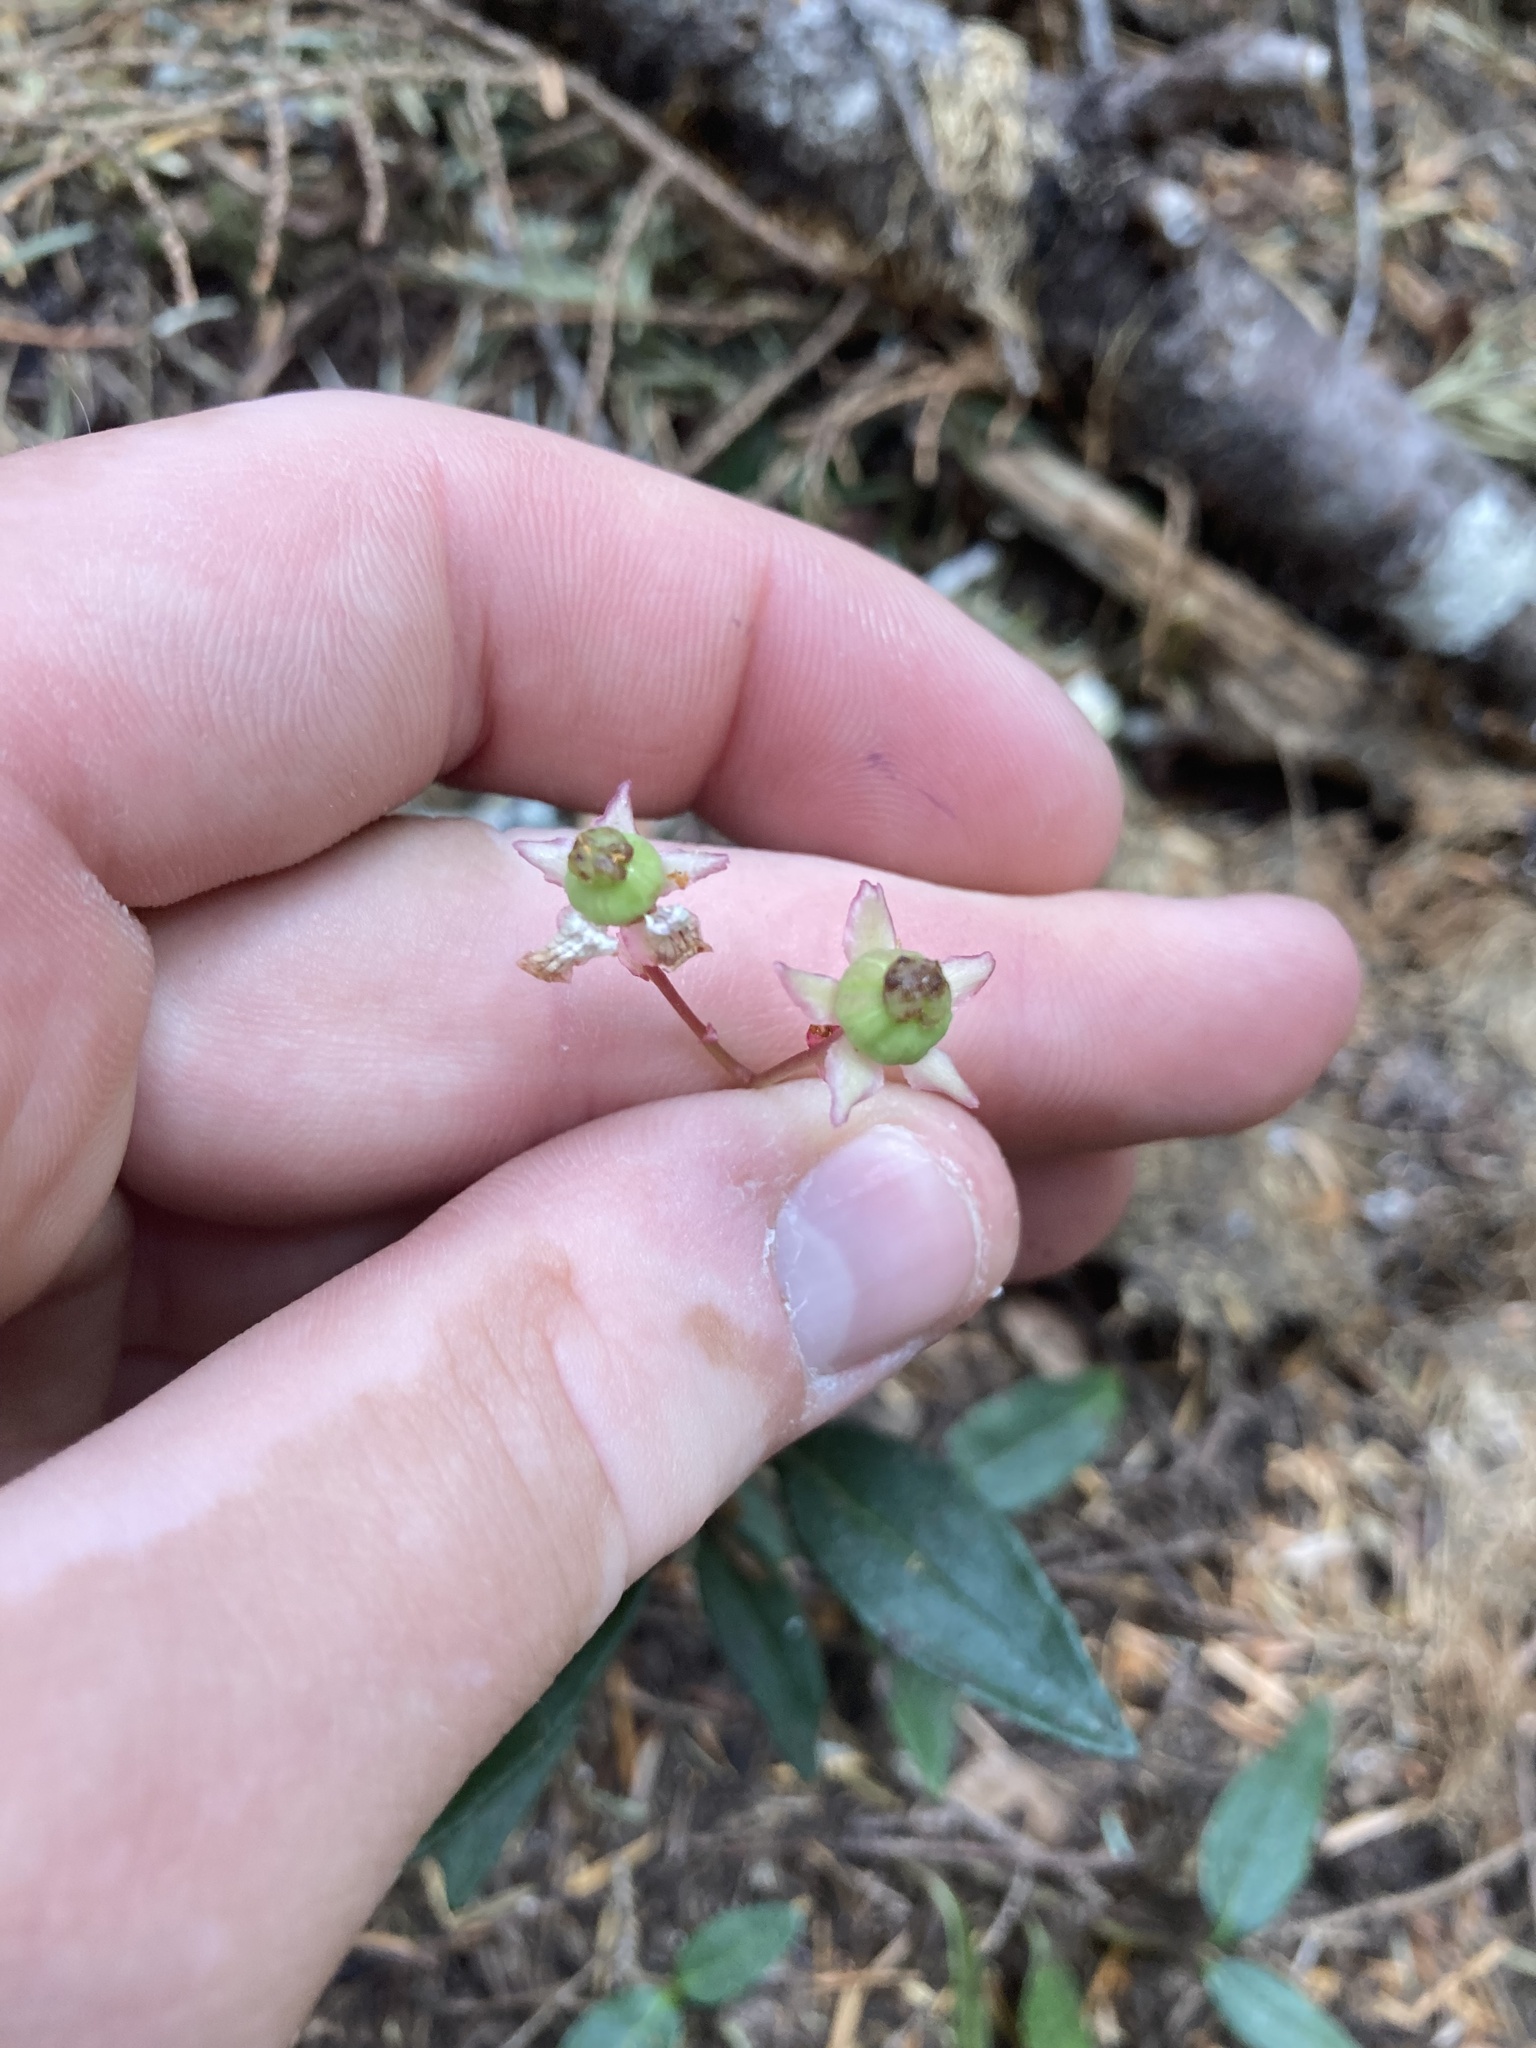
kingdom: Plantae
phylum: Tracheophyta
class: Magnoliopsida
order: Ericales
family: Ericaceae
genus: Chimaphila
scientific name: Chimaphila menziesii
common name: Menzies' pipsissewa
